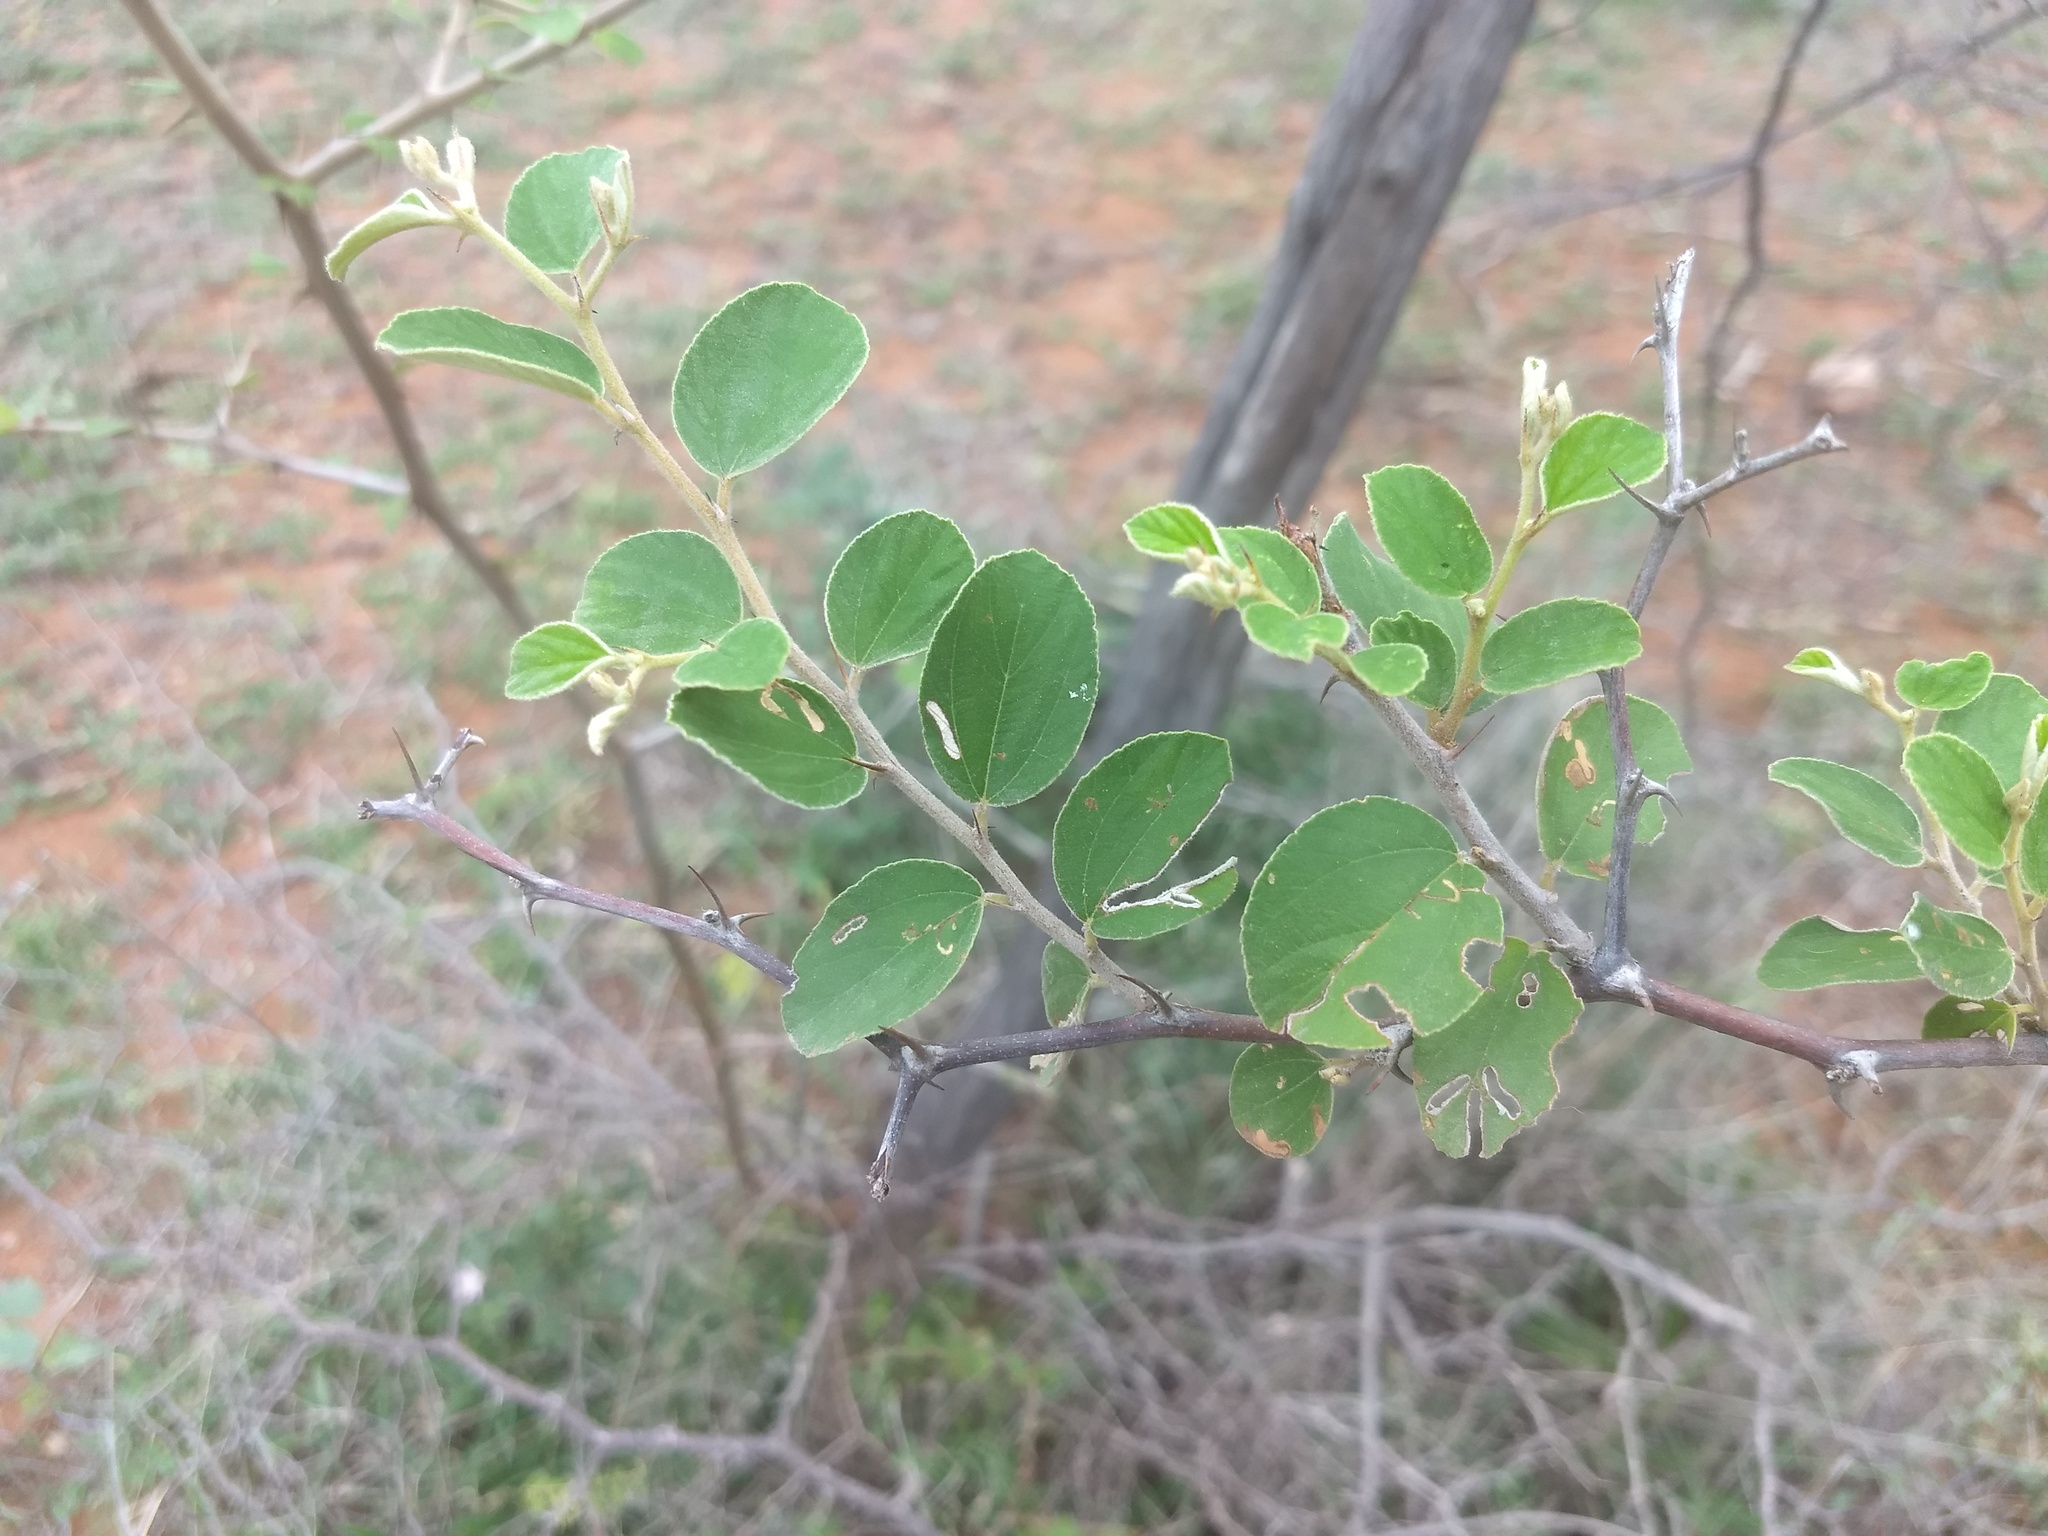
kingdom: Plantae
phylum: Tracheophyta
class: Magnoliopsida
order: Rosales
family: Rhamnaceae
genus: Ziziphus
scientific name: Ziziphus mauritiana
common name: Indian jujube
